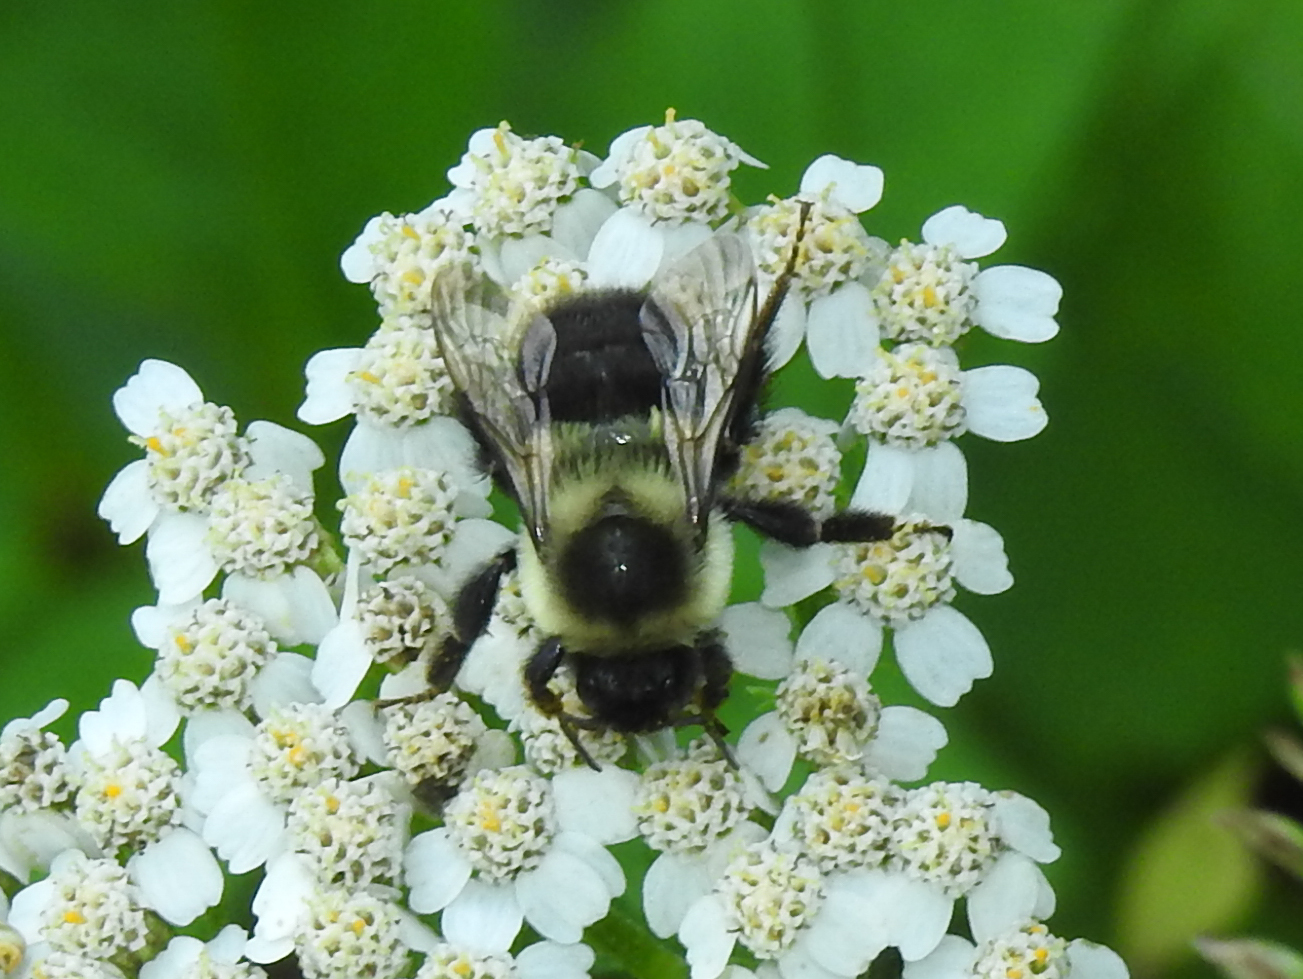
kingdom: Animalia
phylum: Arthropoda
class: Insecta
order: Hymenoptera
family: Apidae
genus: Bombus
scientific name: Bombus impatiens
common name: Common eastern bumble bee
